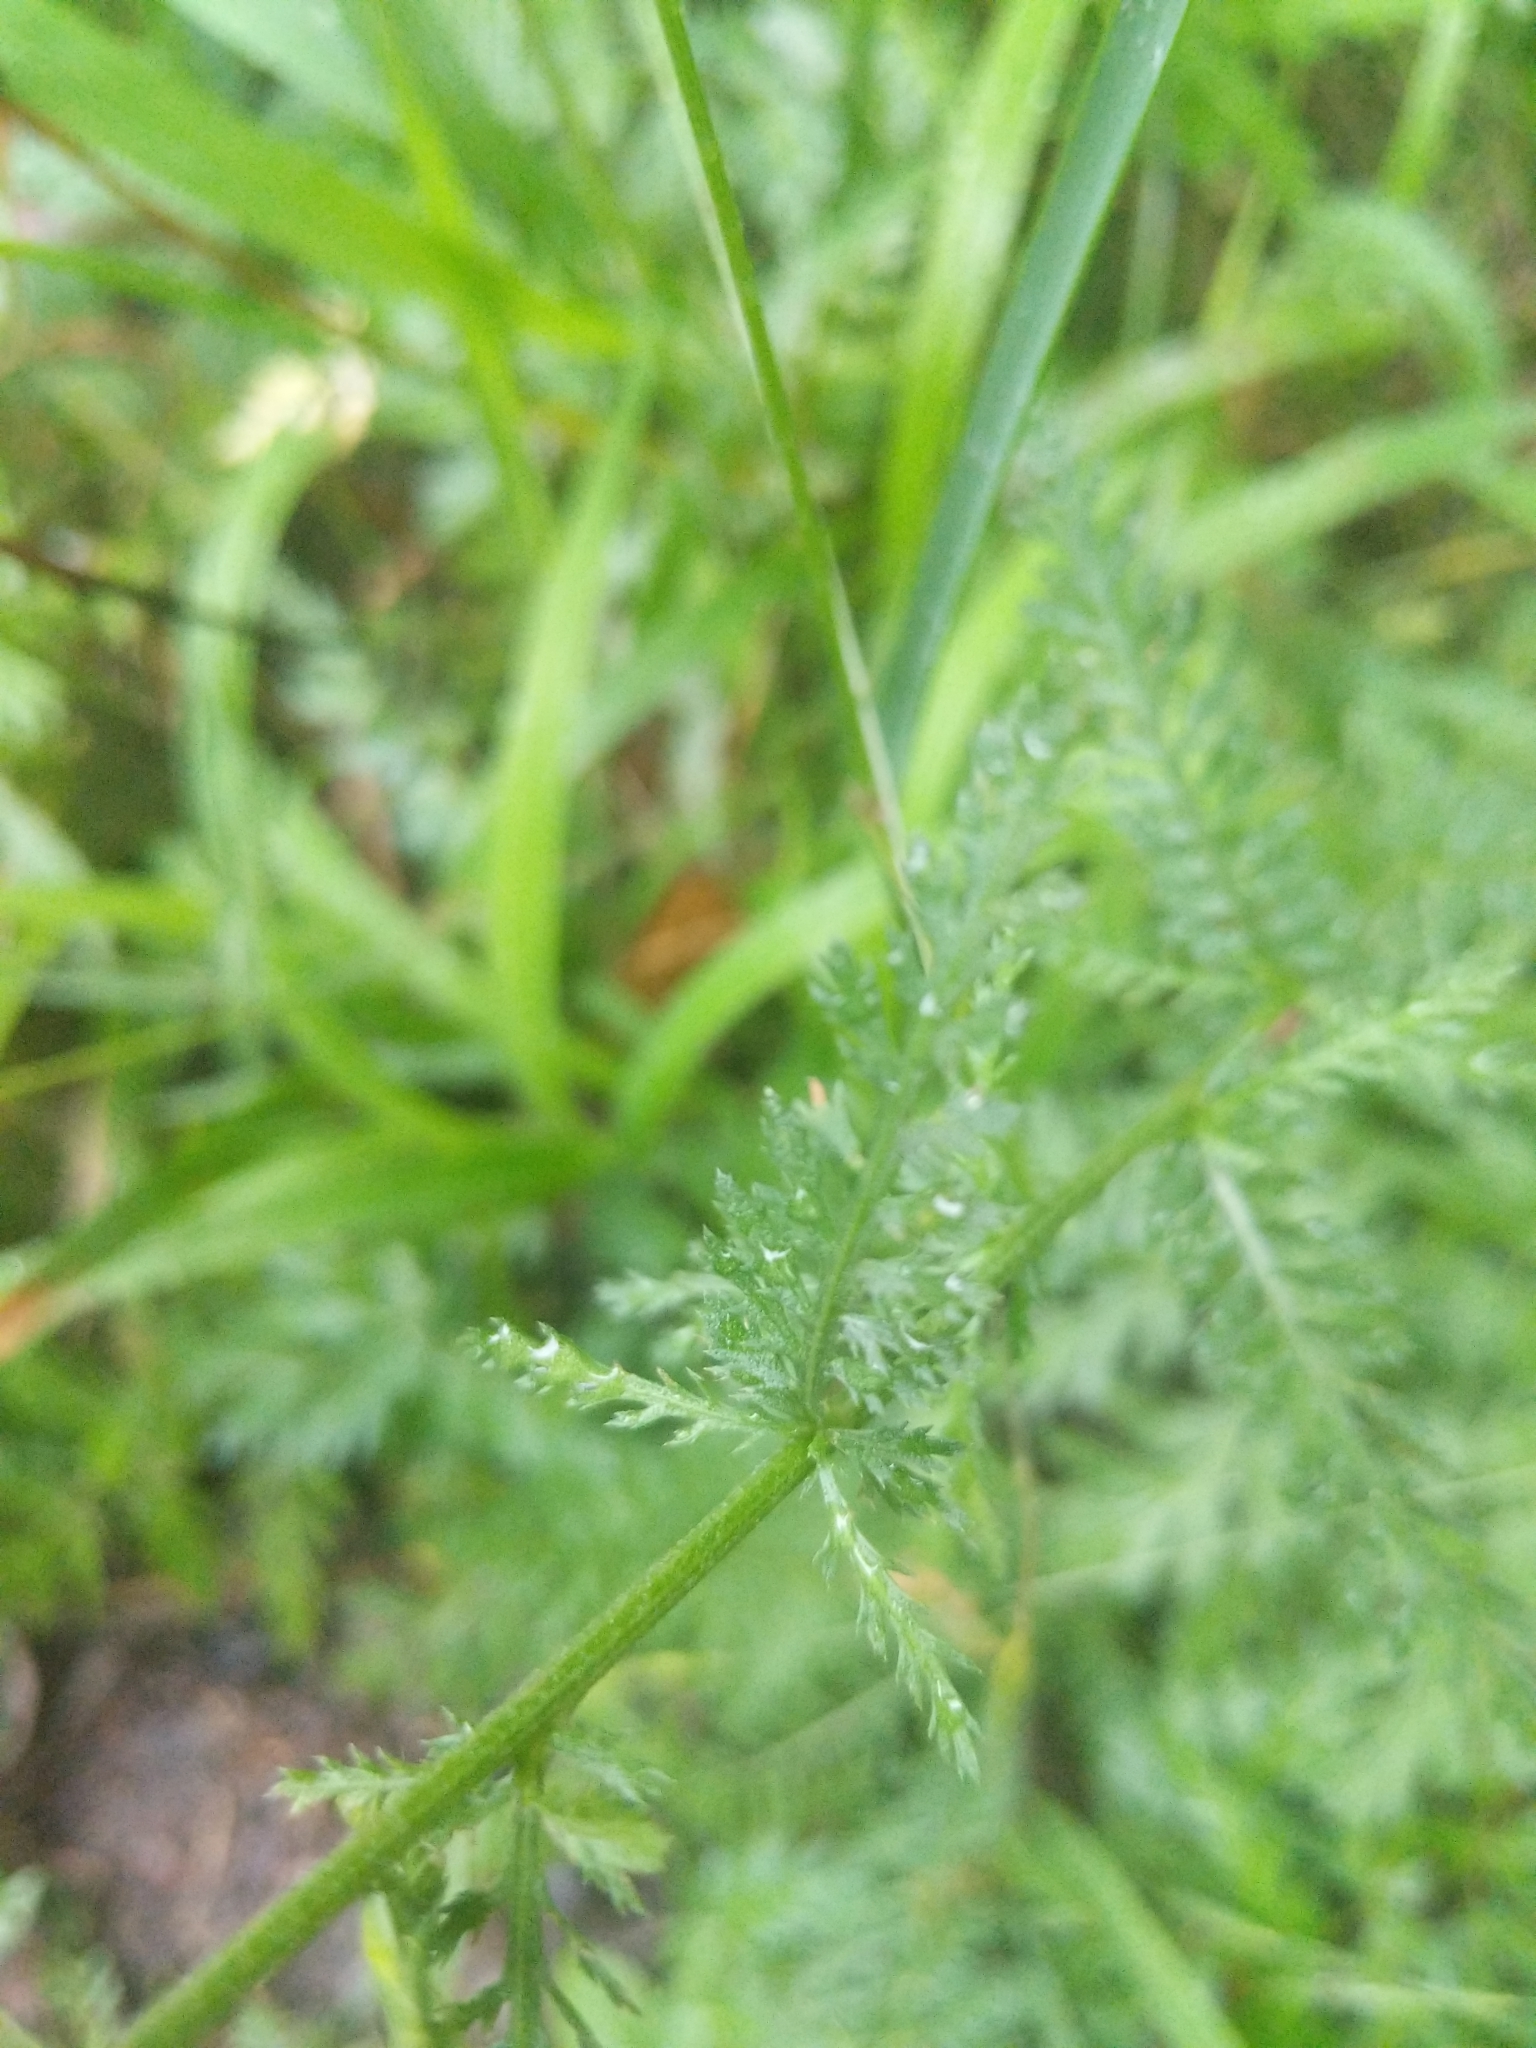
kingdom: Plantae
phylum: Tracheophyta
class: Magnoliopsida
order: Asterales
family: Asteraceae
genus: Achillea
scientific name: Achillea millefolium
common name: Yarrow
